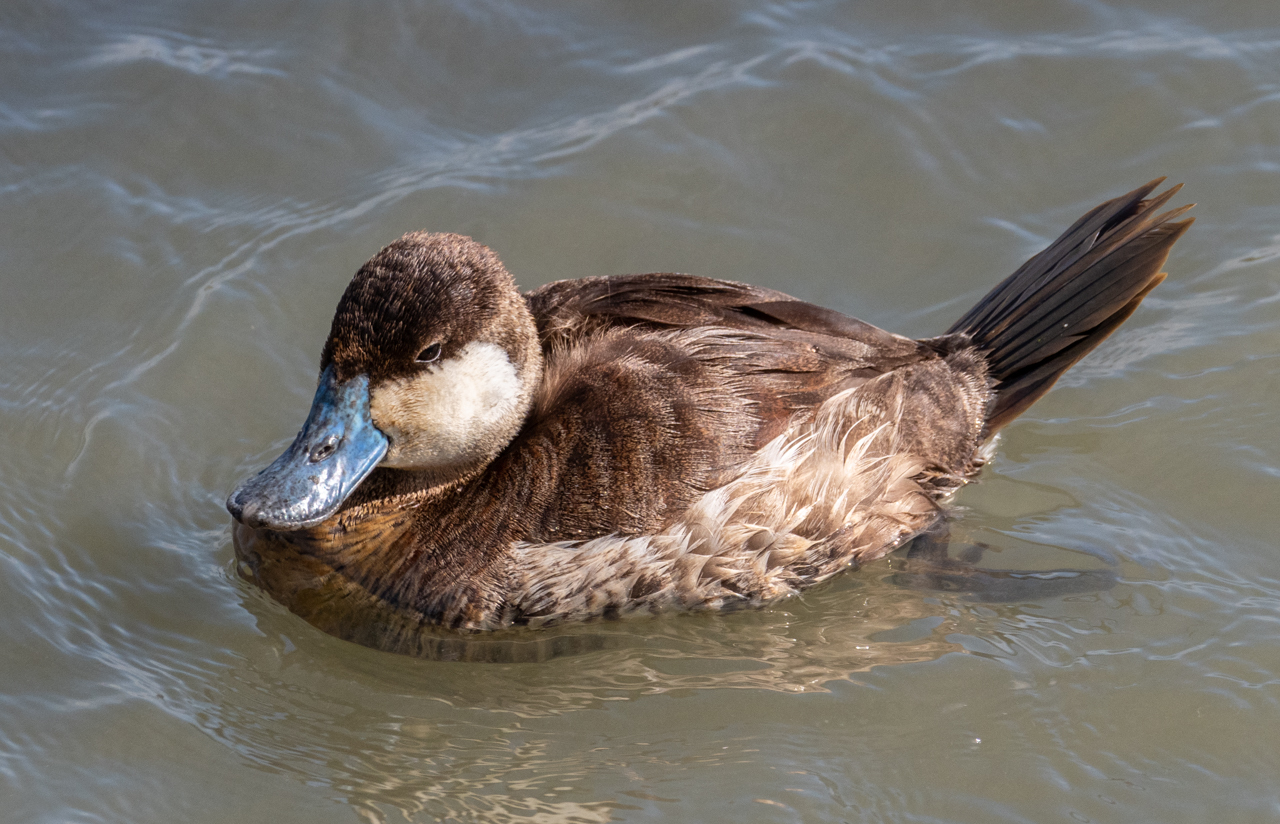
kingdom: Animalia
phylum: Chordata
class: Aves
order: Anseriformes
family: Anatidae
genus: Oxyura
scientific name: Oxyura jamaicensis
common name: Ruddy duck
